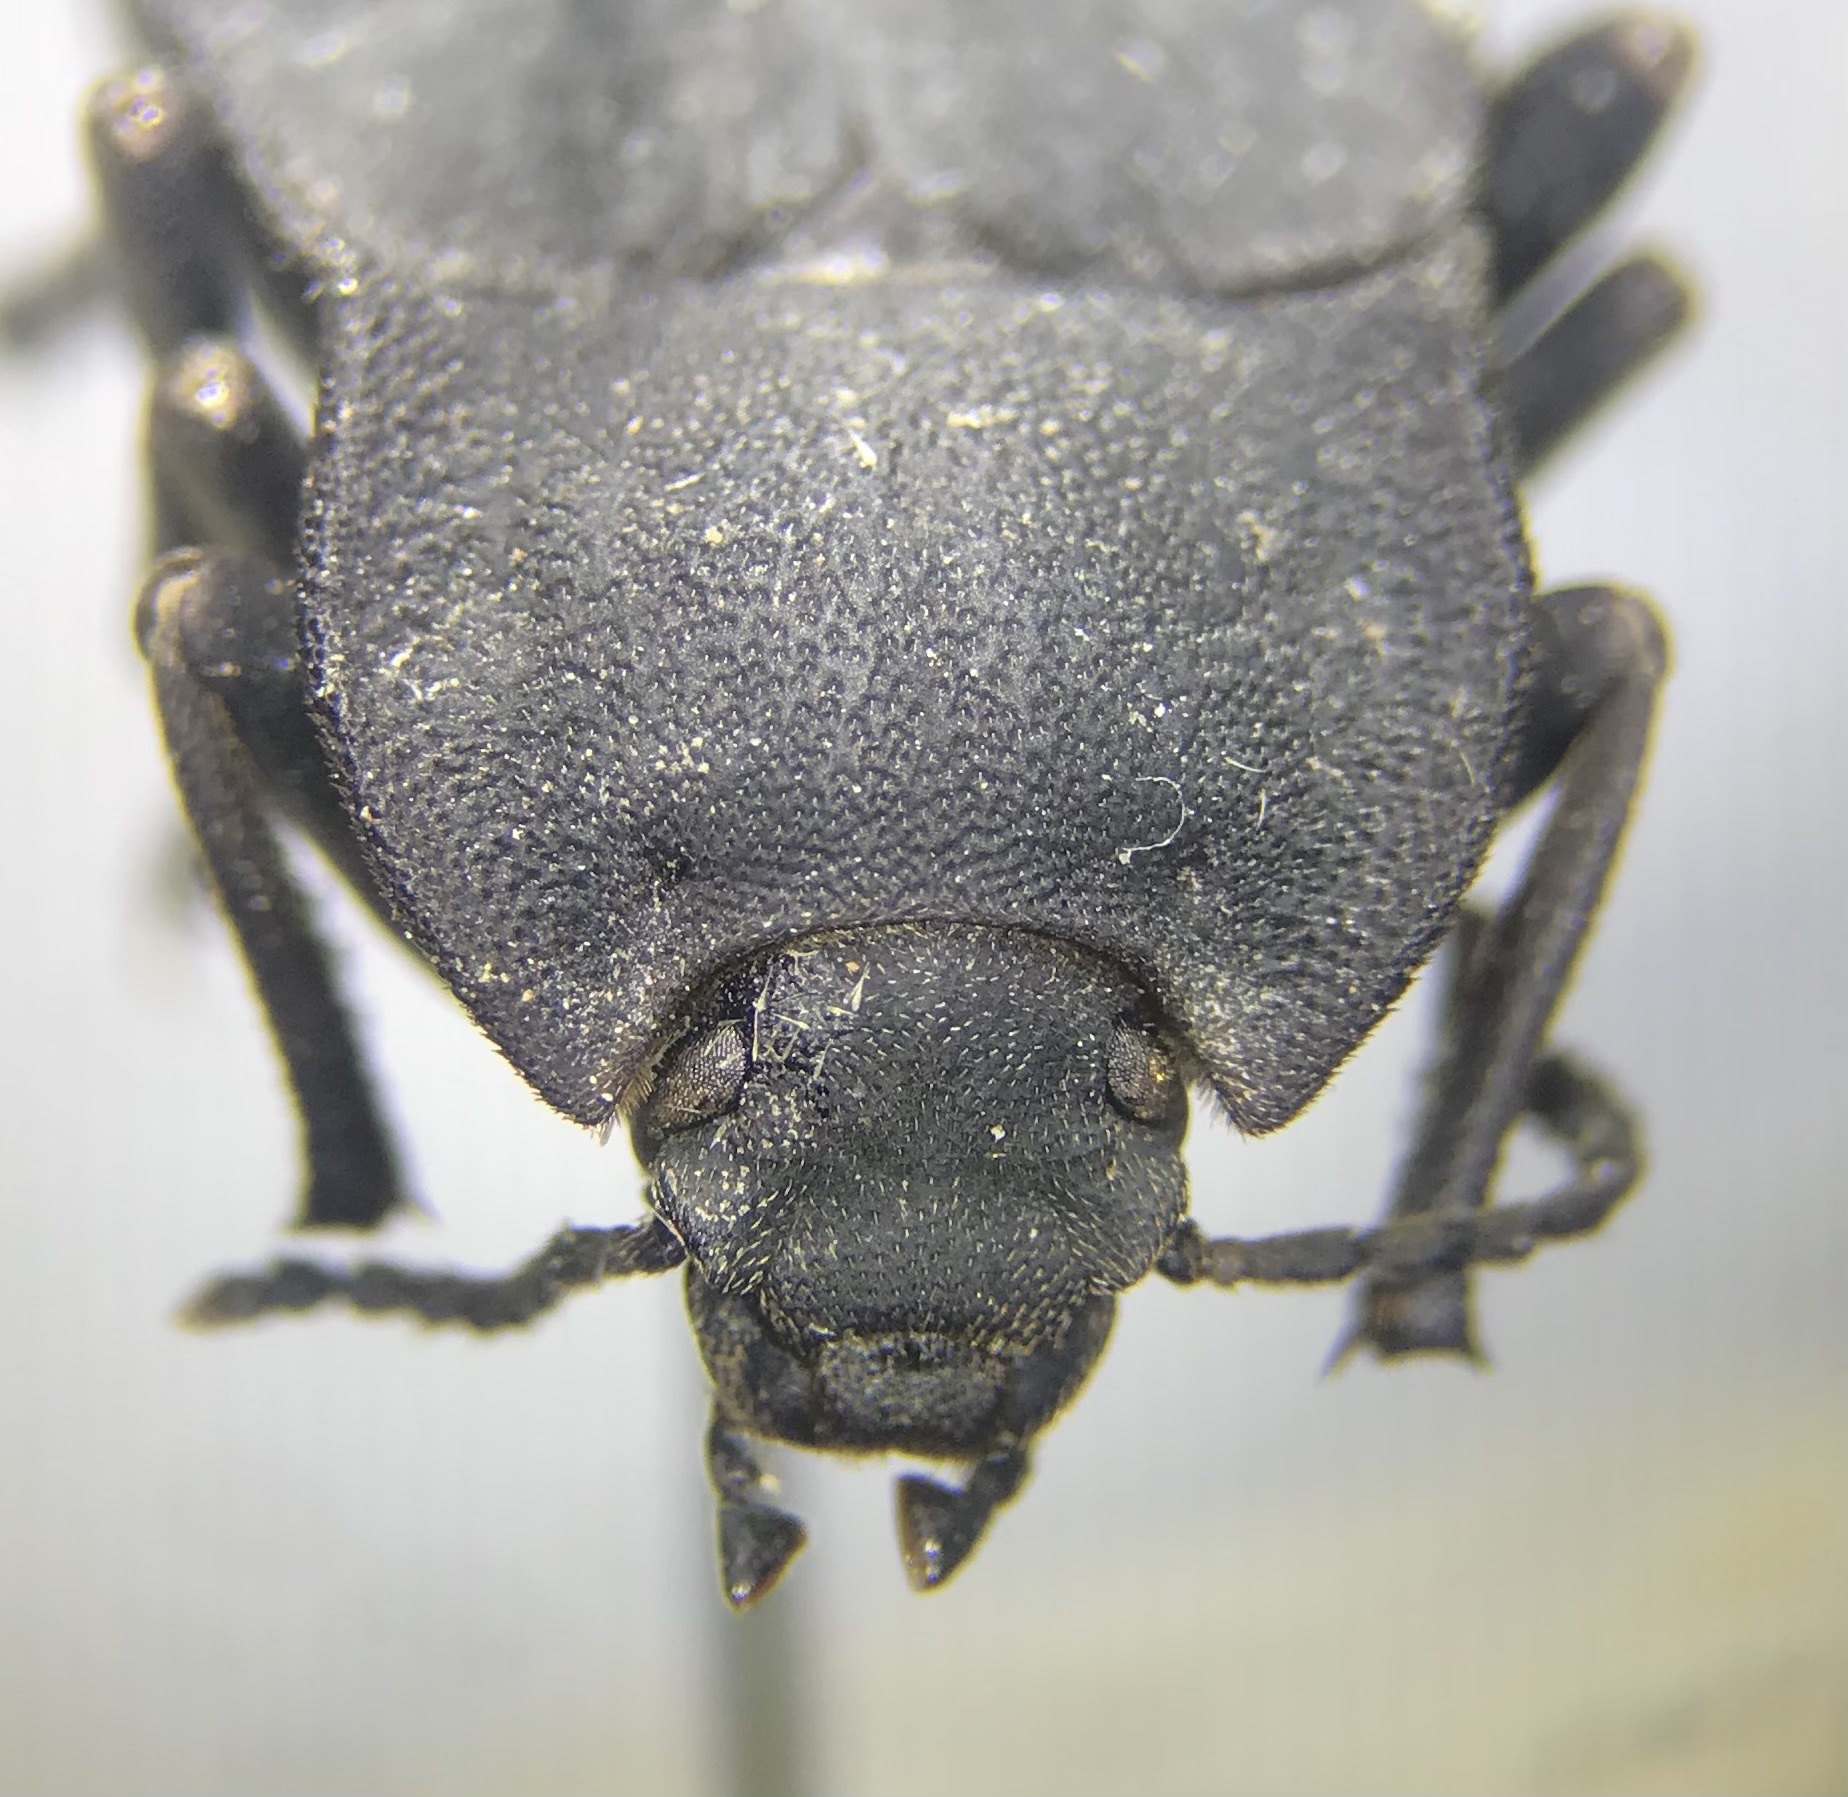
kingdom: Animalia
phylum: Arthropoda
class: Insecta
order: Coleoptera
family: Tenebrionidae
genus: Stenomorpha
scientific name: Stenomorpha opaca
